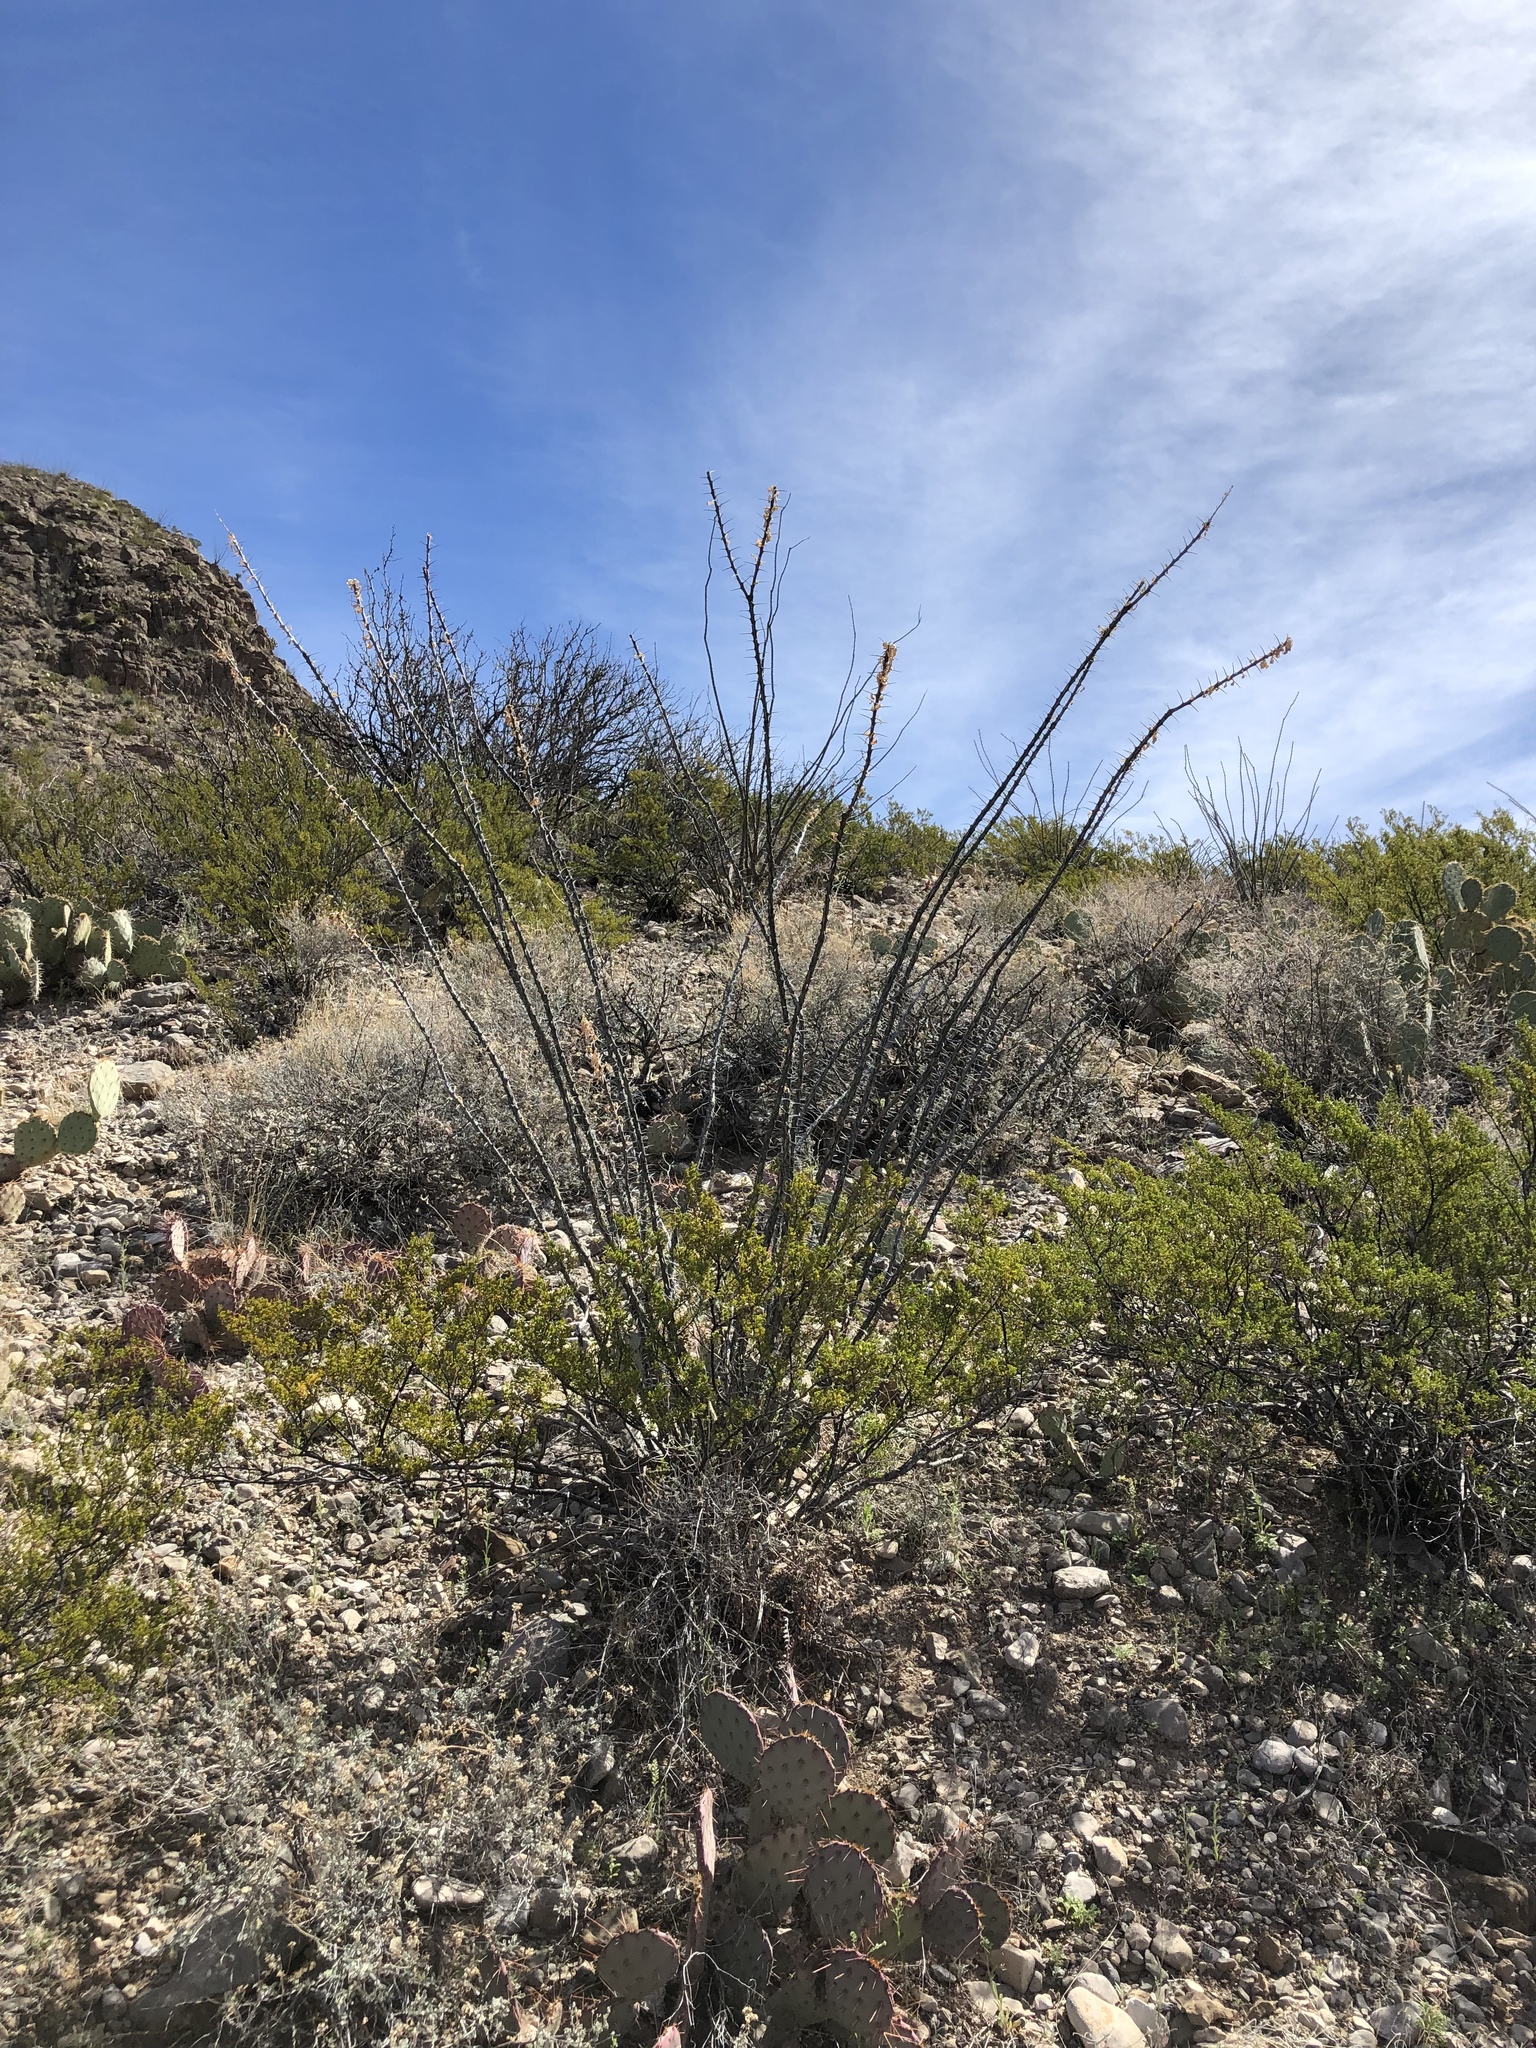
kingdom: Plantae
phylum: Tracheophyta
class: Magnoliopsida
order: Ericales
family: Fouquieriaceae
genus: Fouquieria
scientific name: Fouquieria splendens
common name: Vine-cactus
